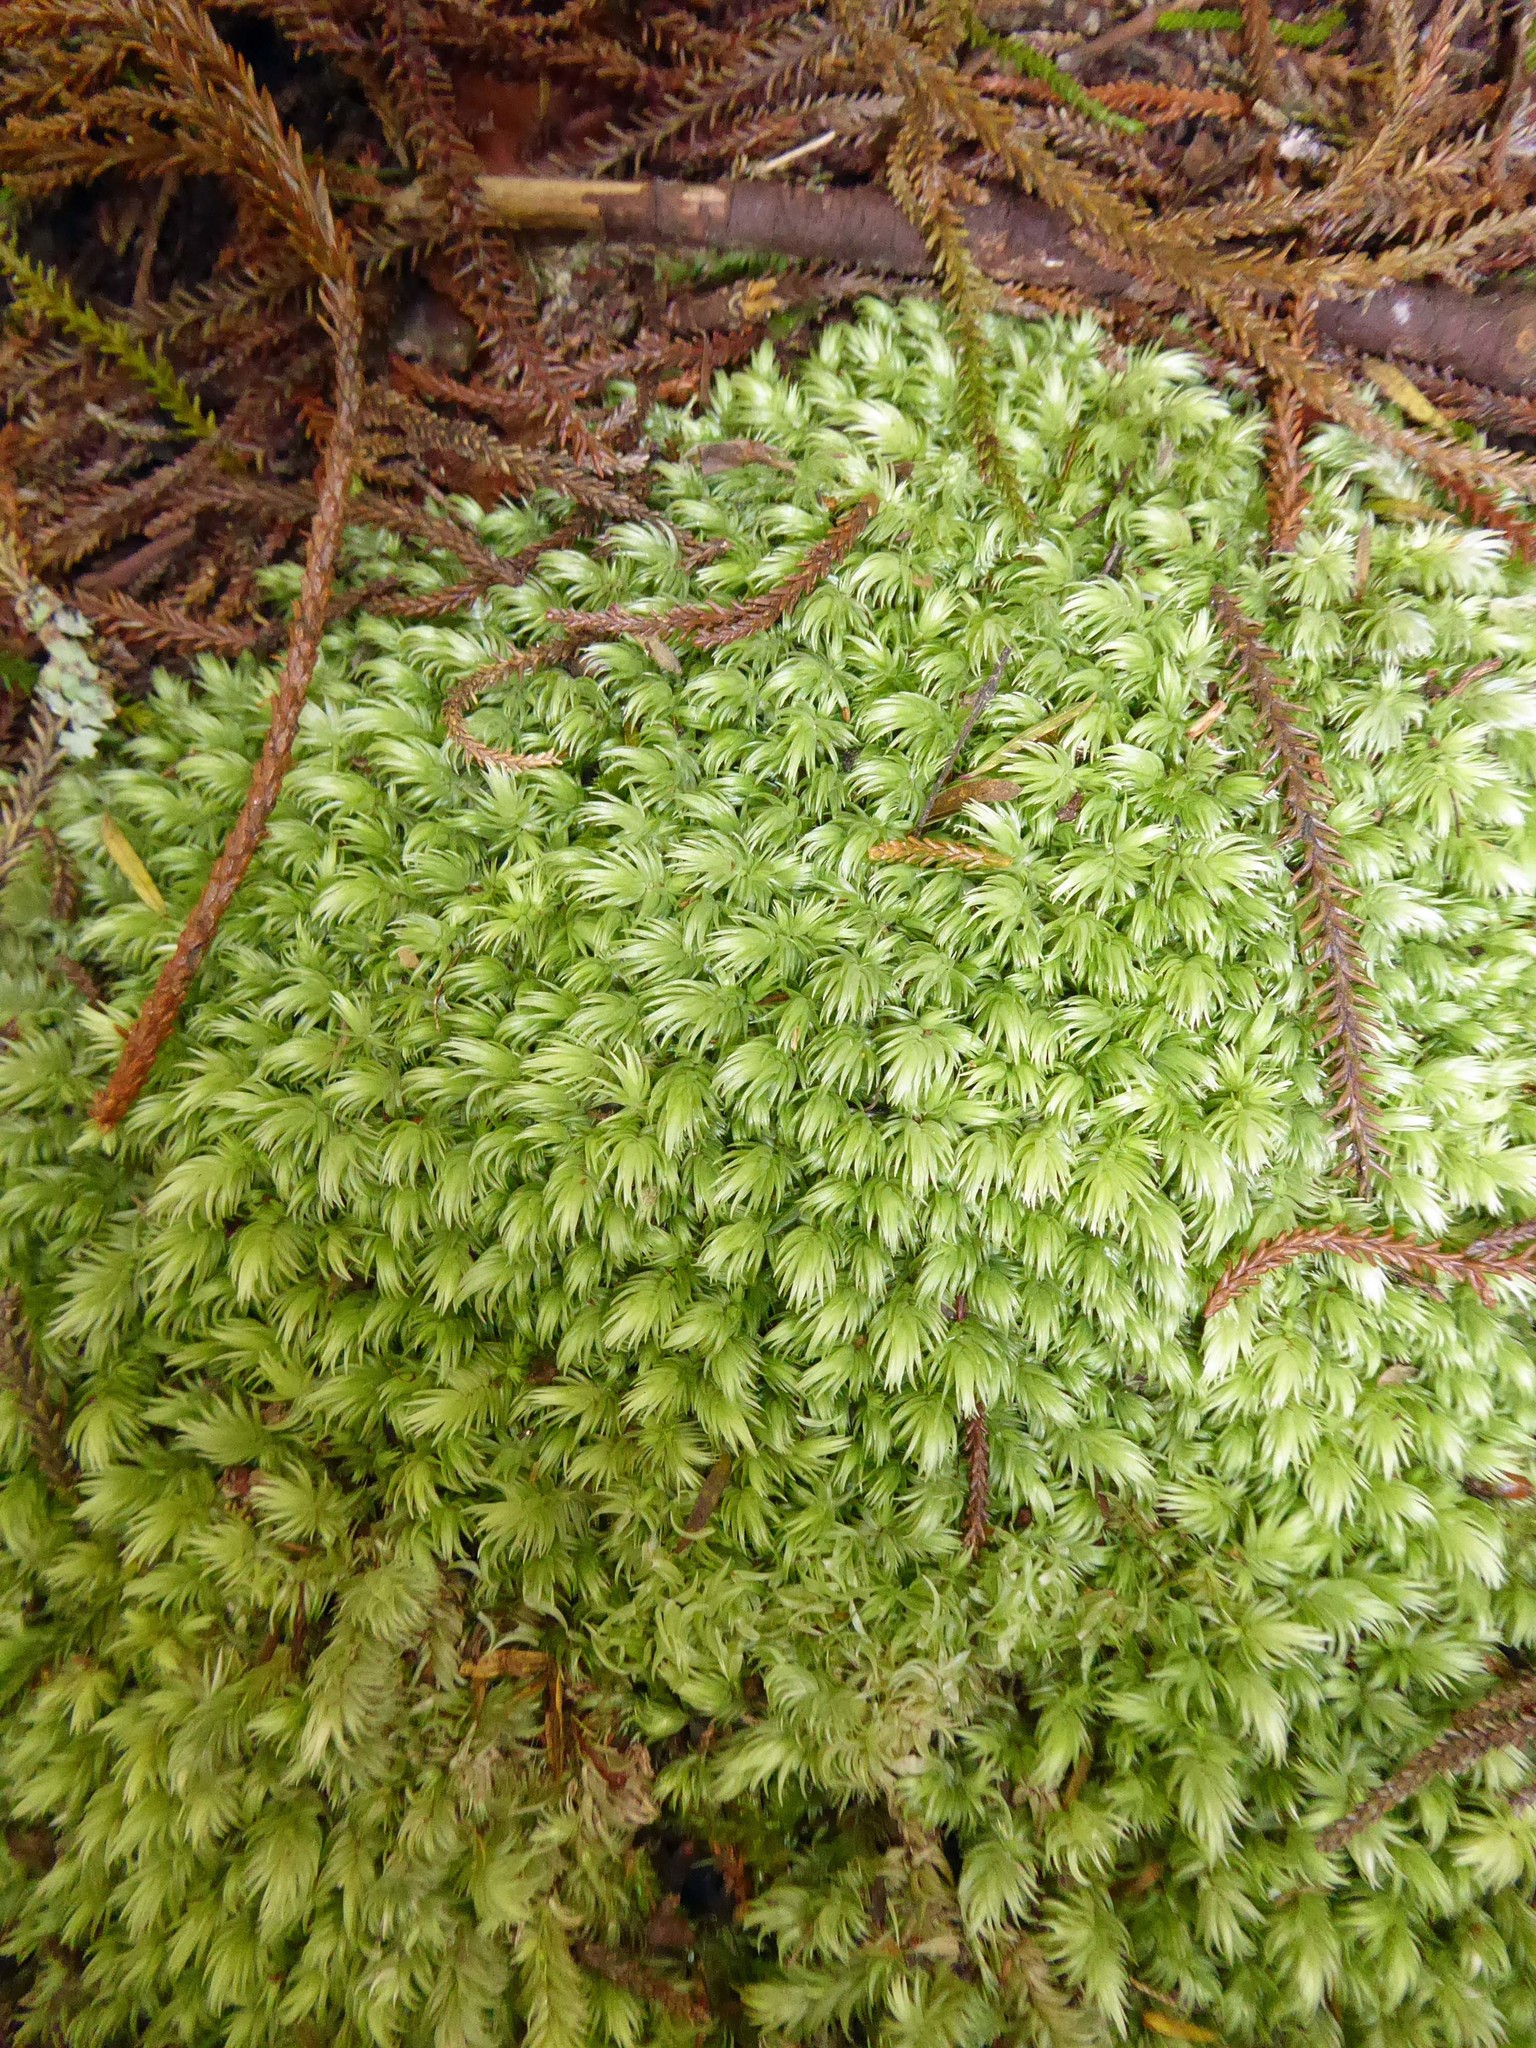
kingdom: Plantae
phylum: Bryophyta
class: Bryopsida
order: Dicranales
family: Leucobryaceae
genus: Leucobryum
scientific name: Leucobryum javense
